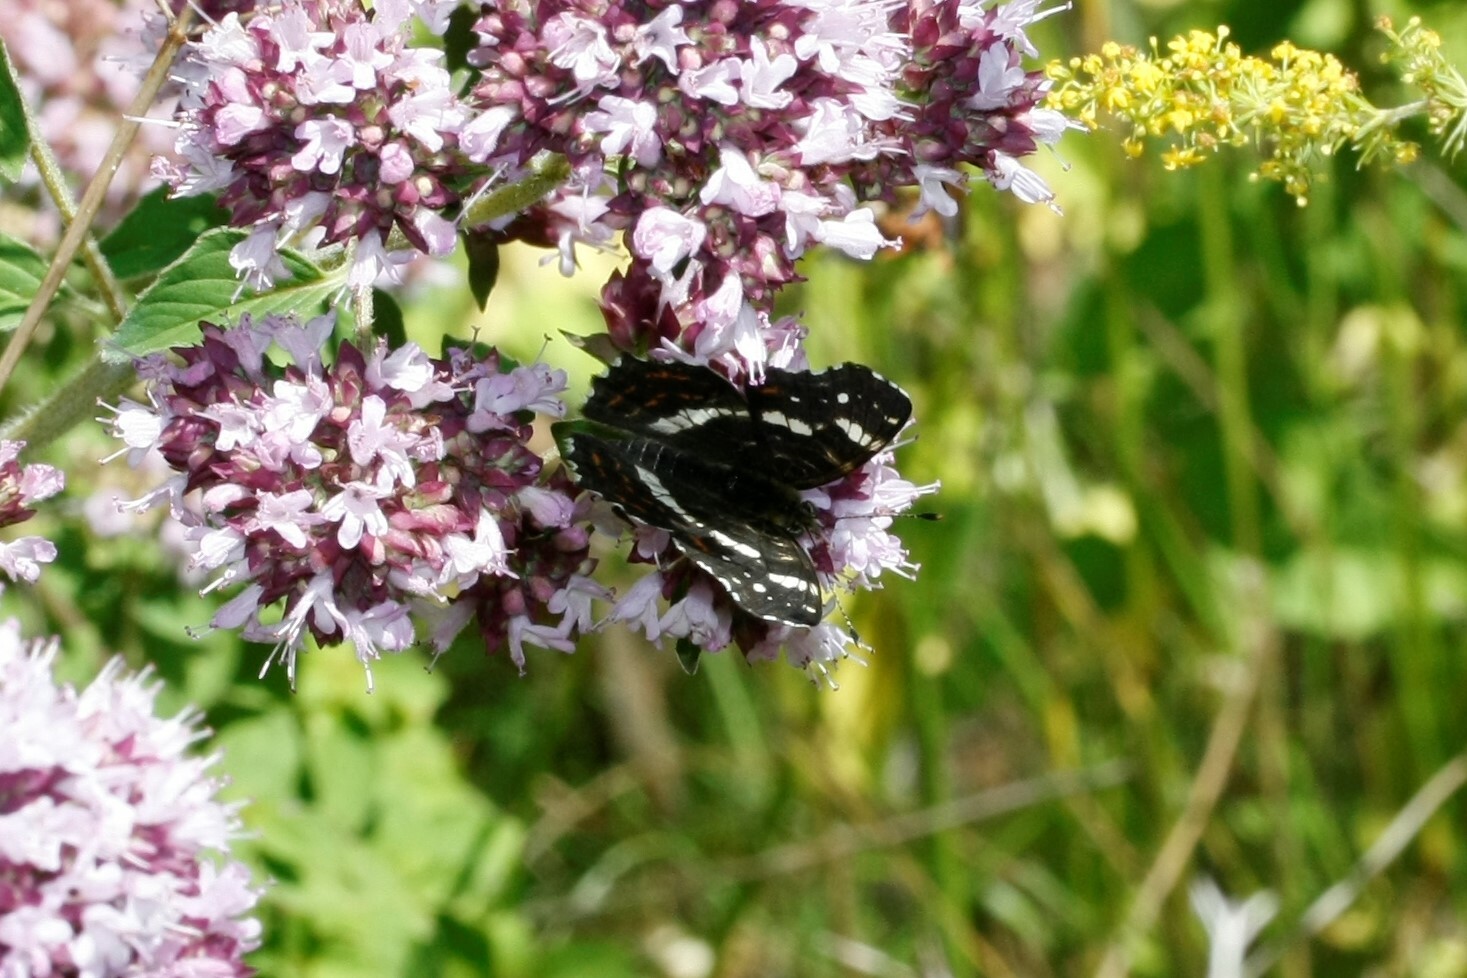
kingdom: Animalia
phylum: Arthropoda
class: Insecta
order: Lepidoptera
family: Nymphalidae
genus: Araschnia
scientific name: Araschnia levana
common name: Map butterfly
